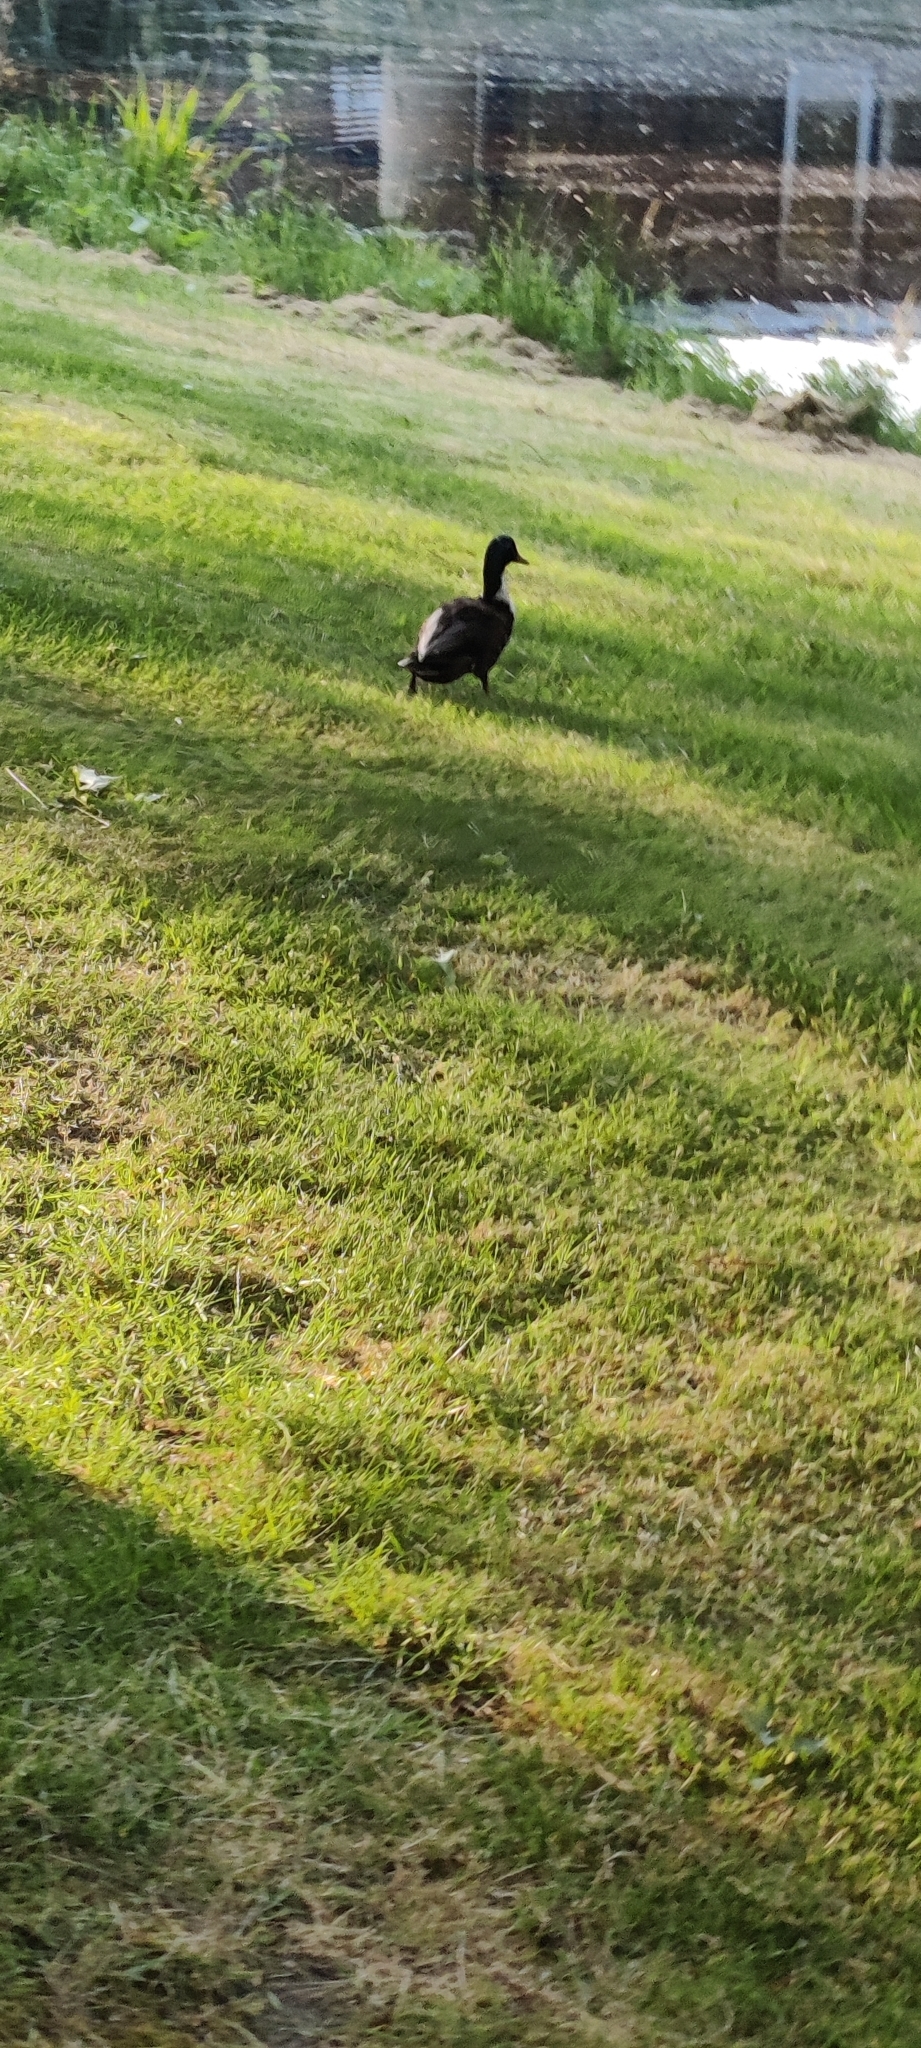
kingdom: Animalia
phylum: Chordata
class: Aves
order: Anseriformes
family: Anatidae
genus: Anas
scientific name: Anas platyrhynchos
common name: Mallard
